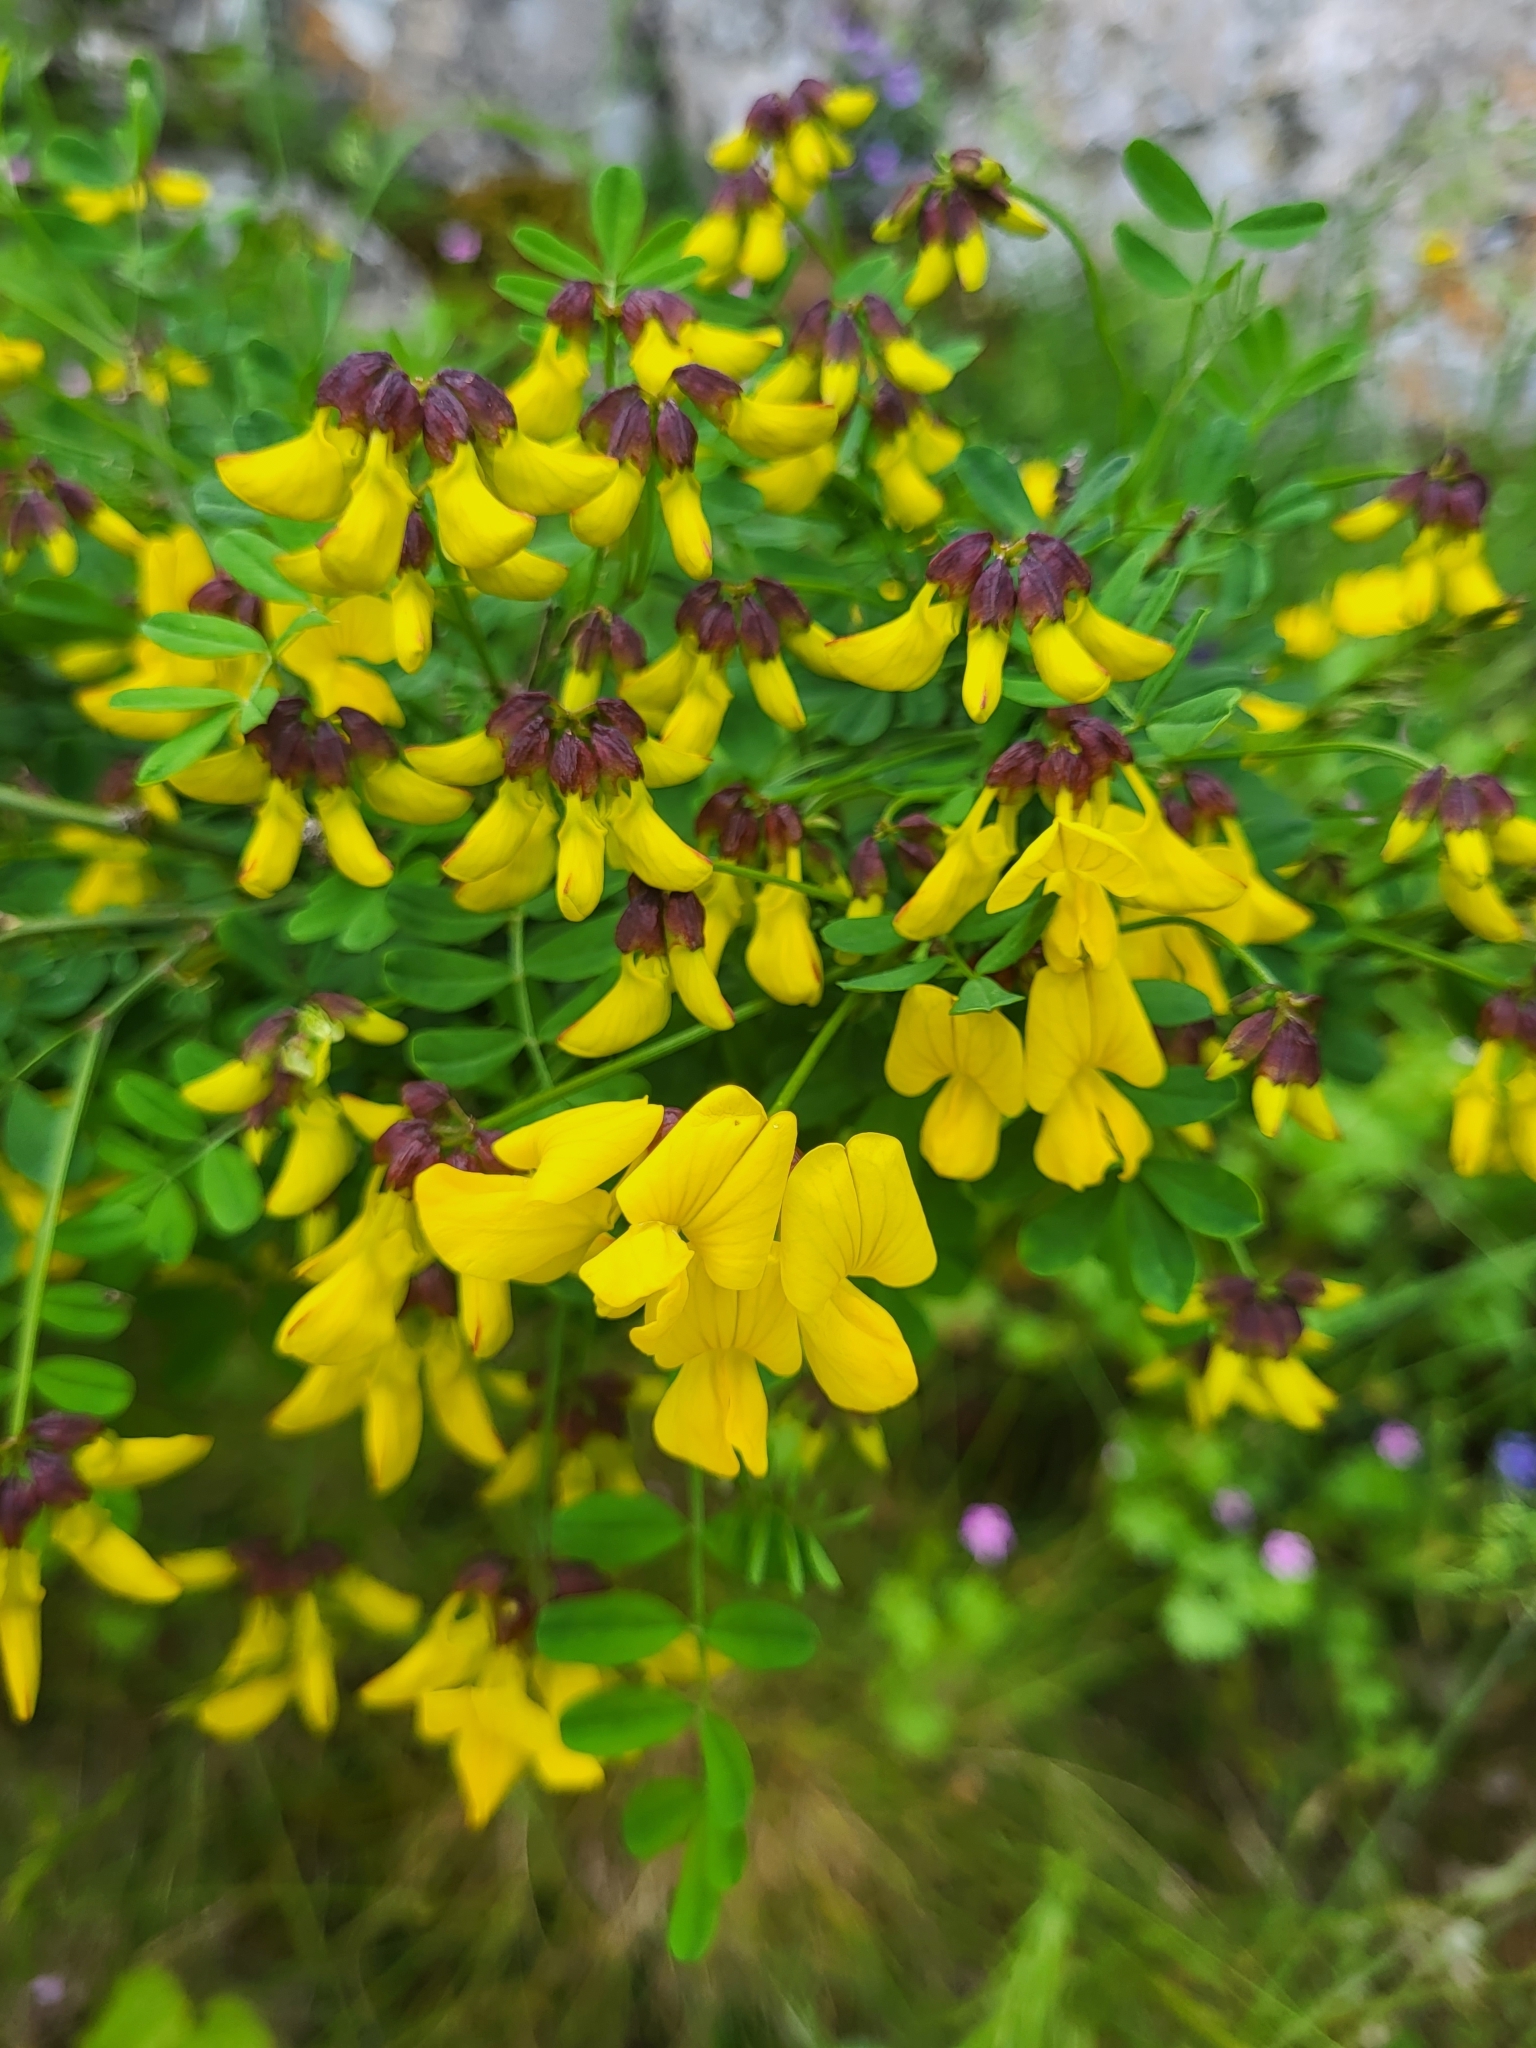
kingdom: Plantae
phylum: Tracheophyta
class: Magnoliopsida
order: Fabales
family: Fabaceae
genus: Hippocrepis
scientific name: Hippocrepis emerus
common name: Scorpion senna
